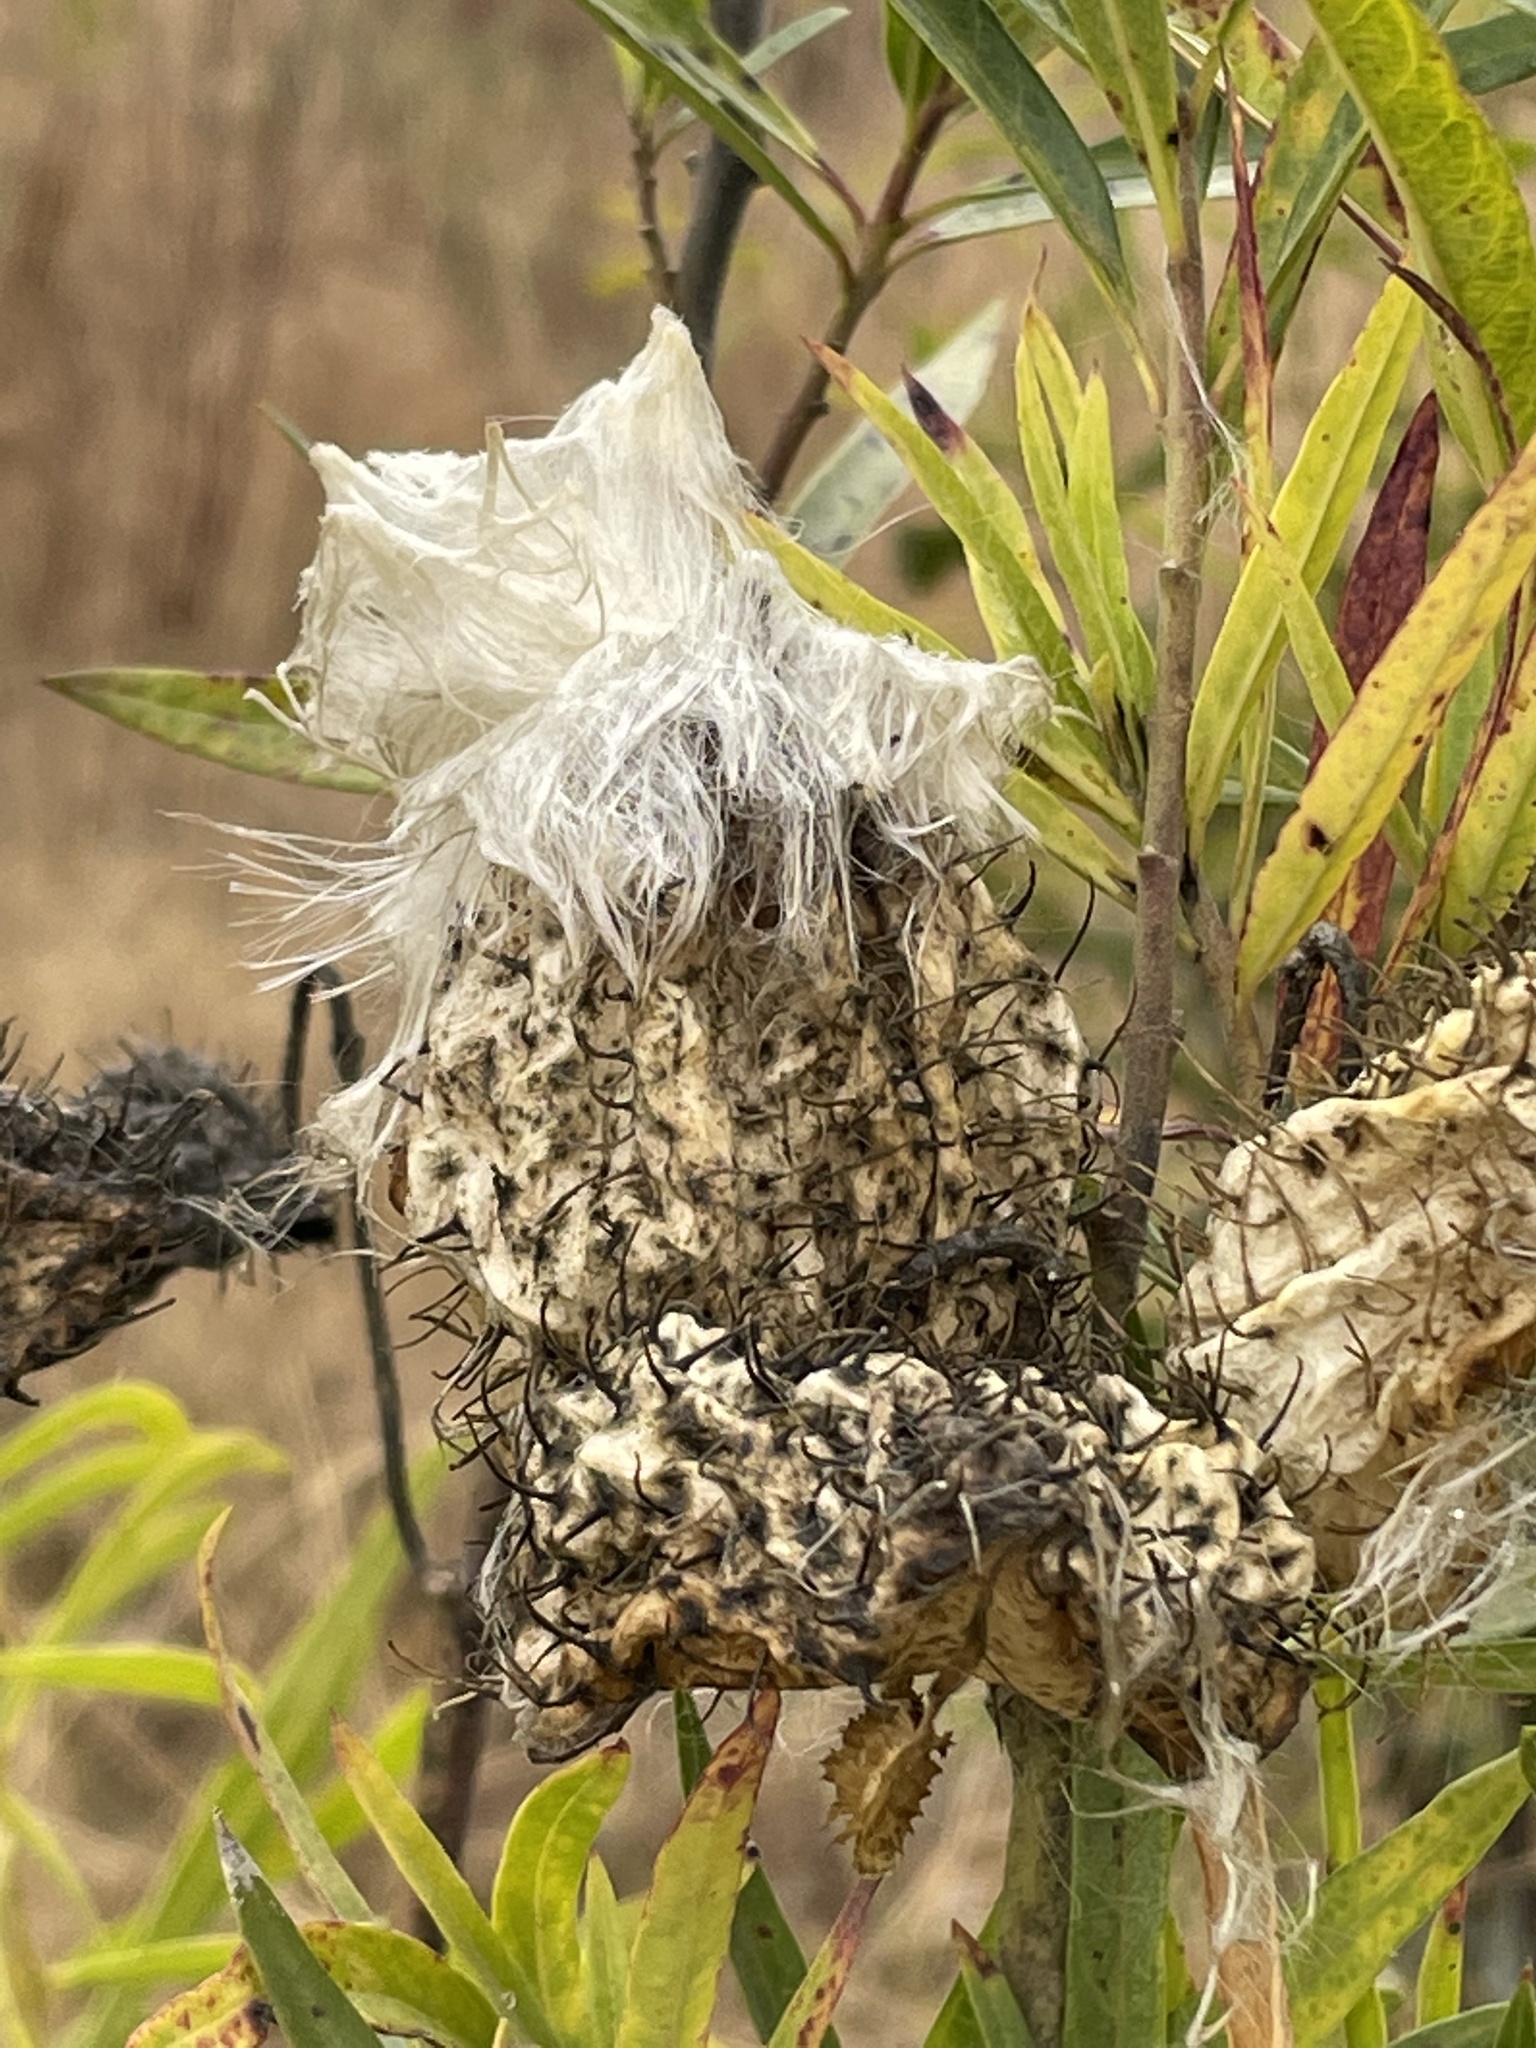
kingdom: Plantae
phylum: Tracheophyta
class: Magnoliopsida
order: Gentianales
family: Apocynaceae
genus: Gomphocarpus
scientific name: Gomphocarpus fruticosus
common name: Milkweed
